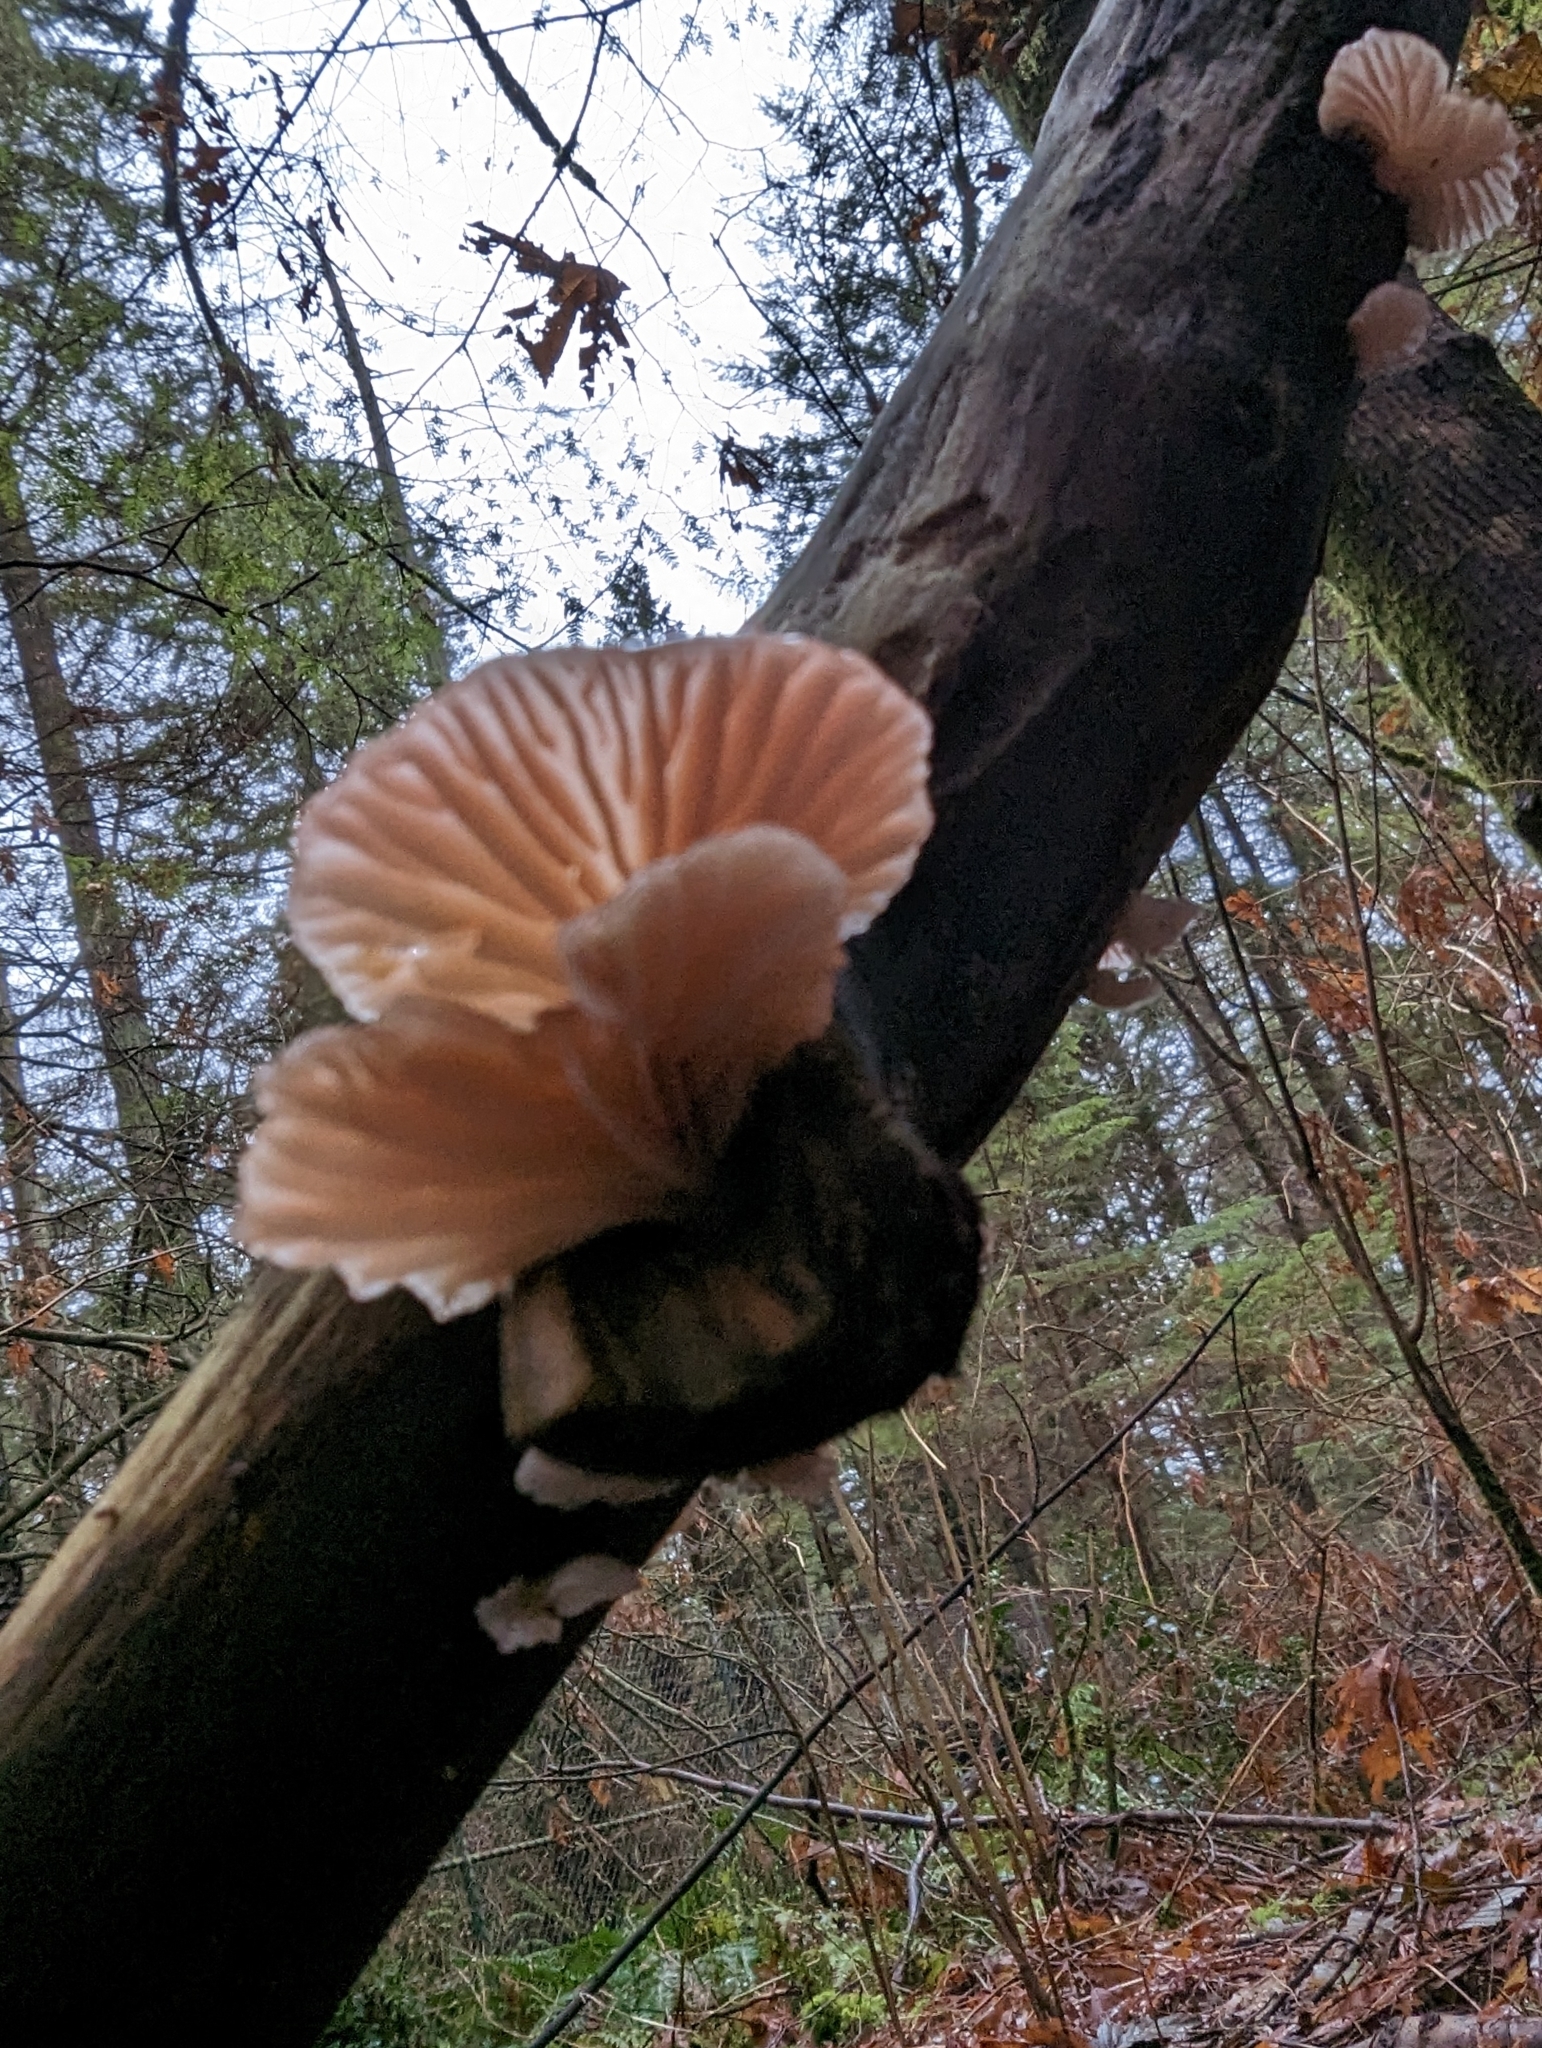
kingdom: Fungi
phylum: Basidiomycota
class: Agaricomycetes
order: Agaricales
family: Mycenaceae
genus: Panellus
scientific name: Panellus longinquus
